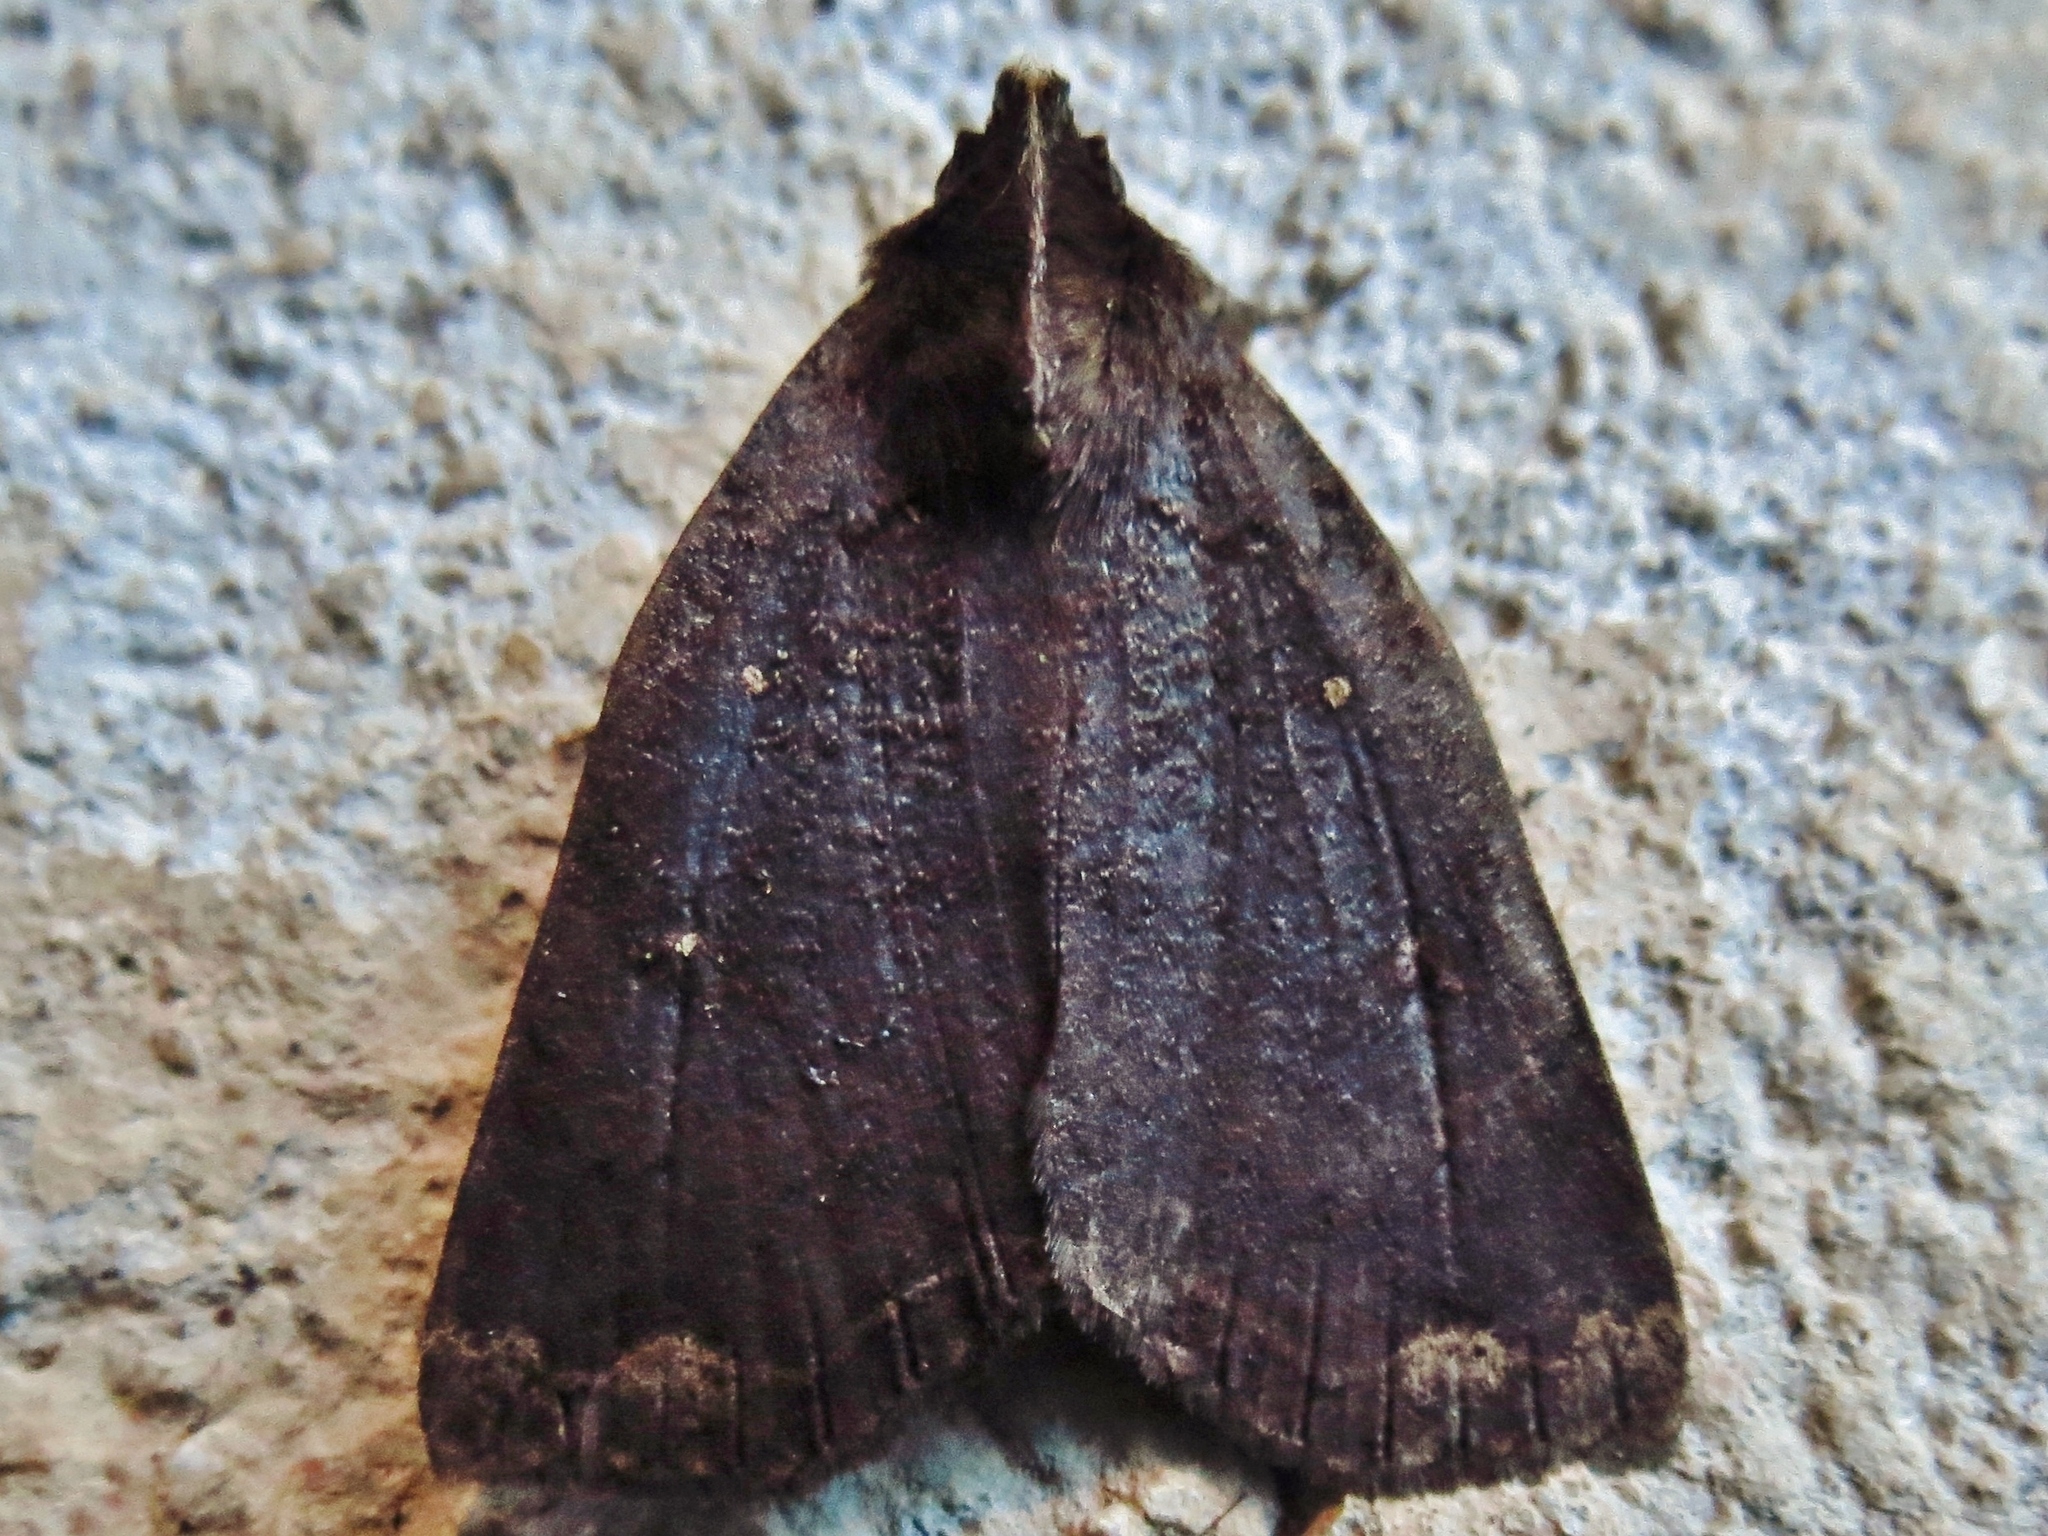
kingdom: Animalia
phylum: Arthropoda
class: Insecta
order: Lepidoptera
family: Erebidae
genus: Pyrgion
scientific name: Pyrgion repanda
